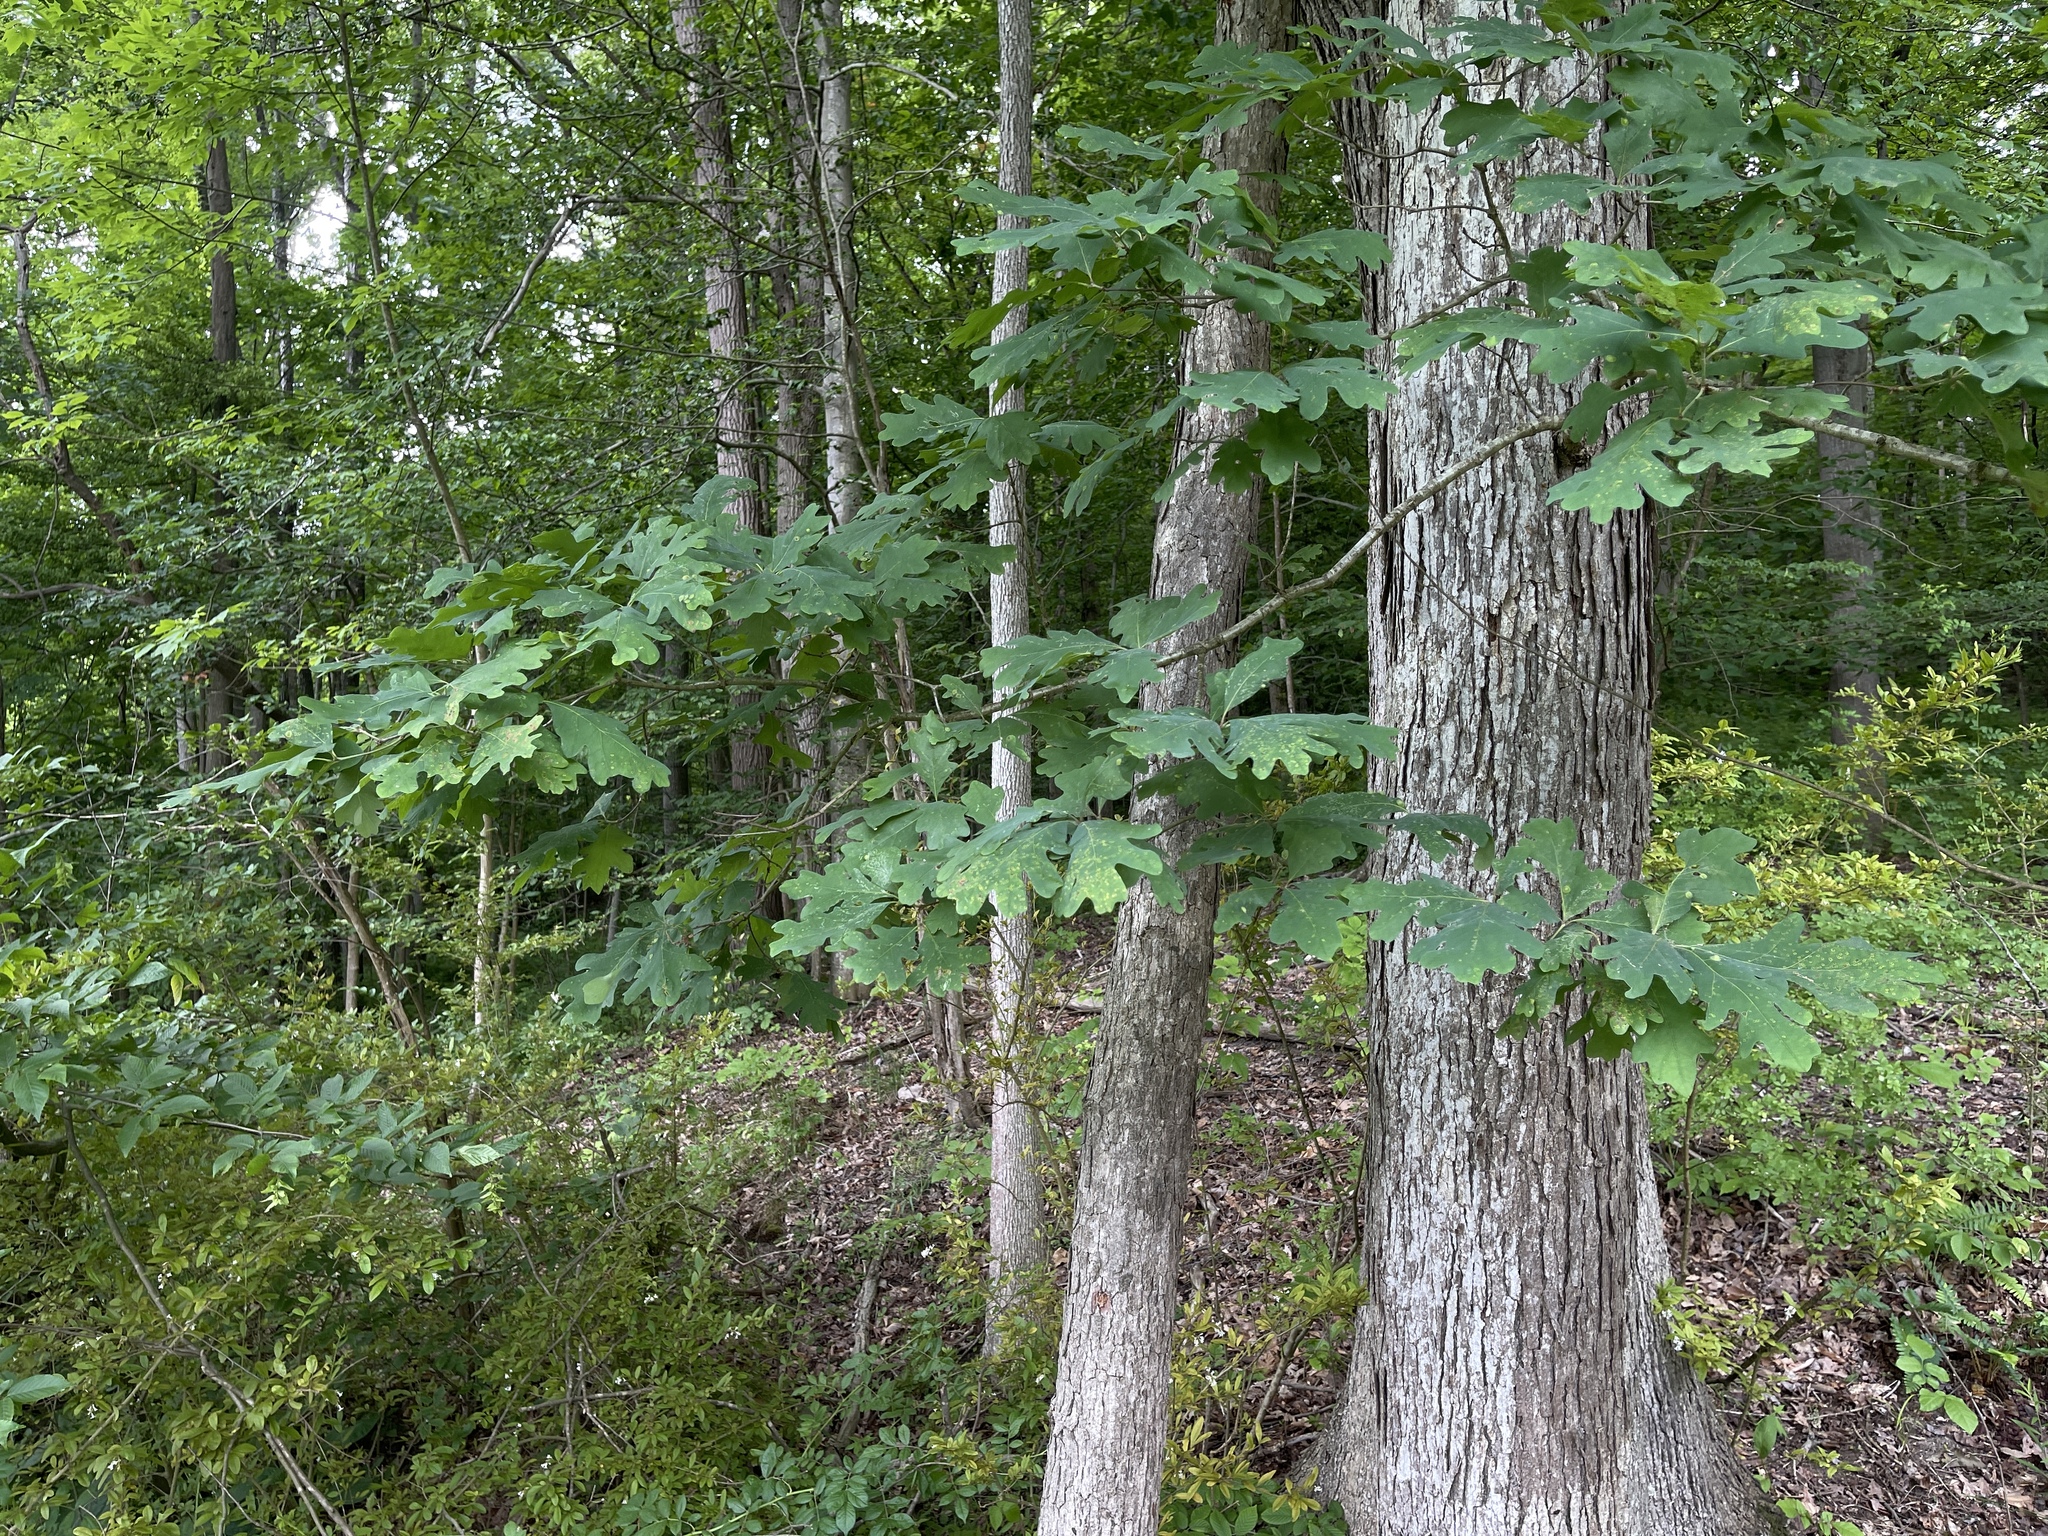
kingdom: Plantae
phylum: Tracheophyta
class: Magnoliopsida
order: Fagales
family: Fagaceae
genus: Quercus
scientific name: Quercus alba
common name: White oak
